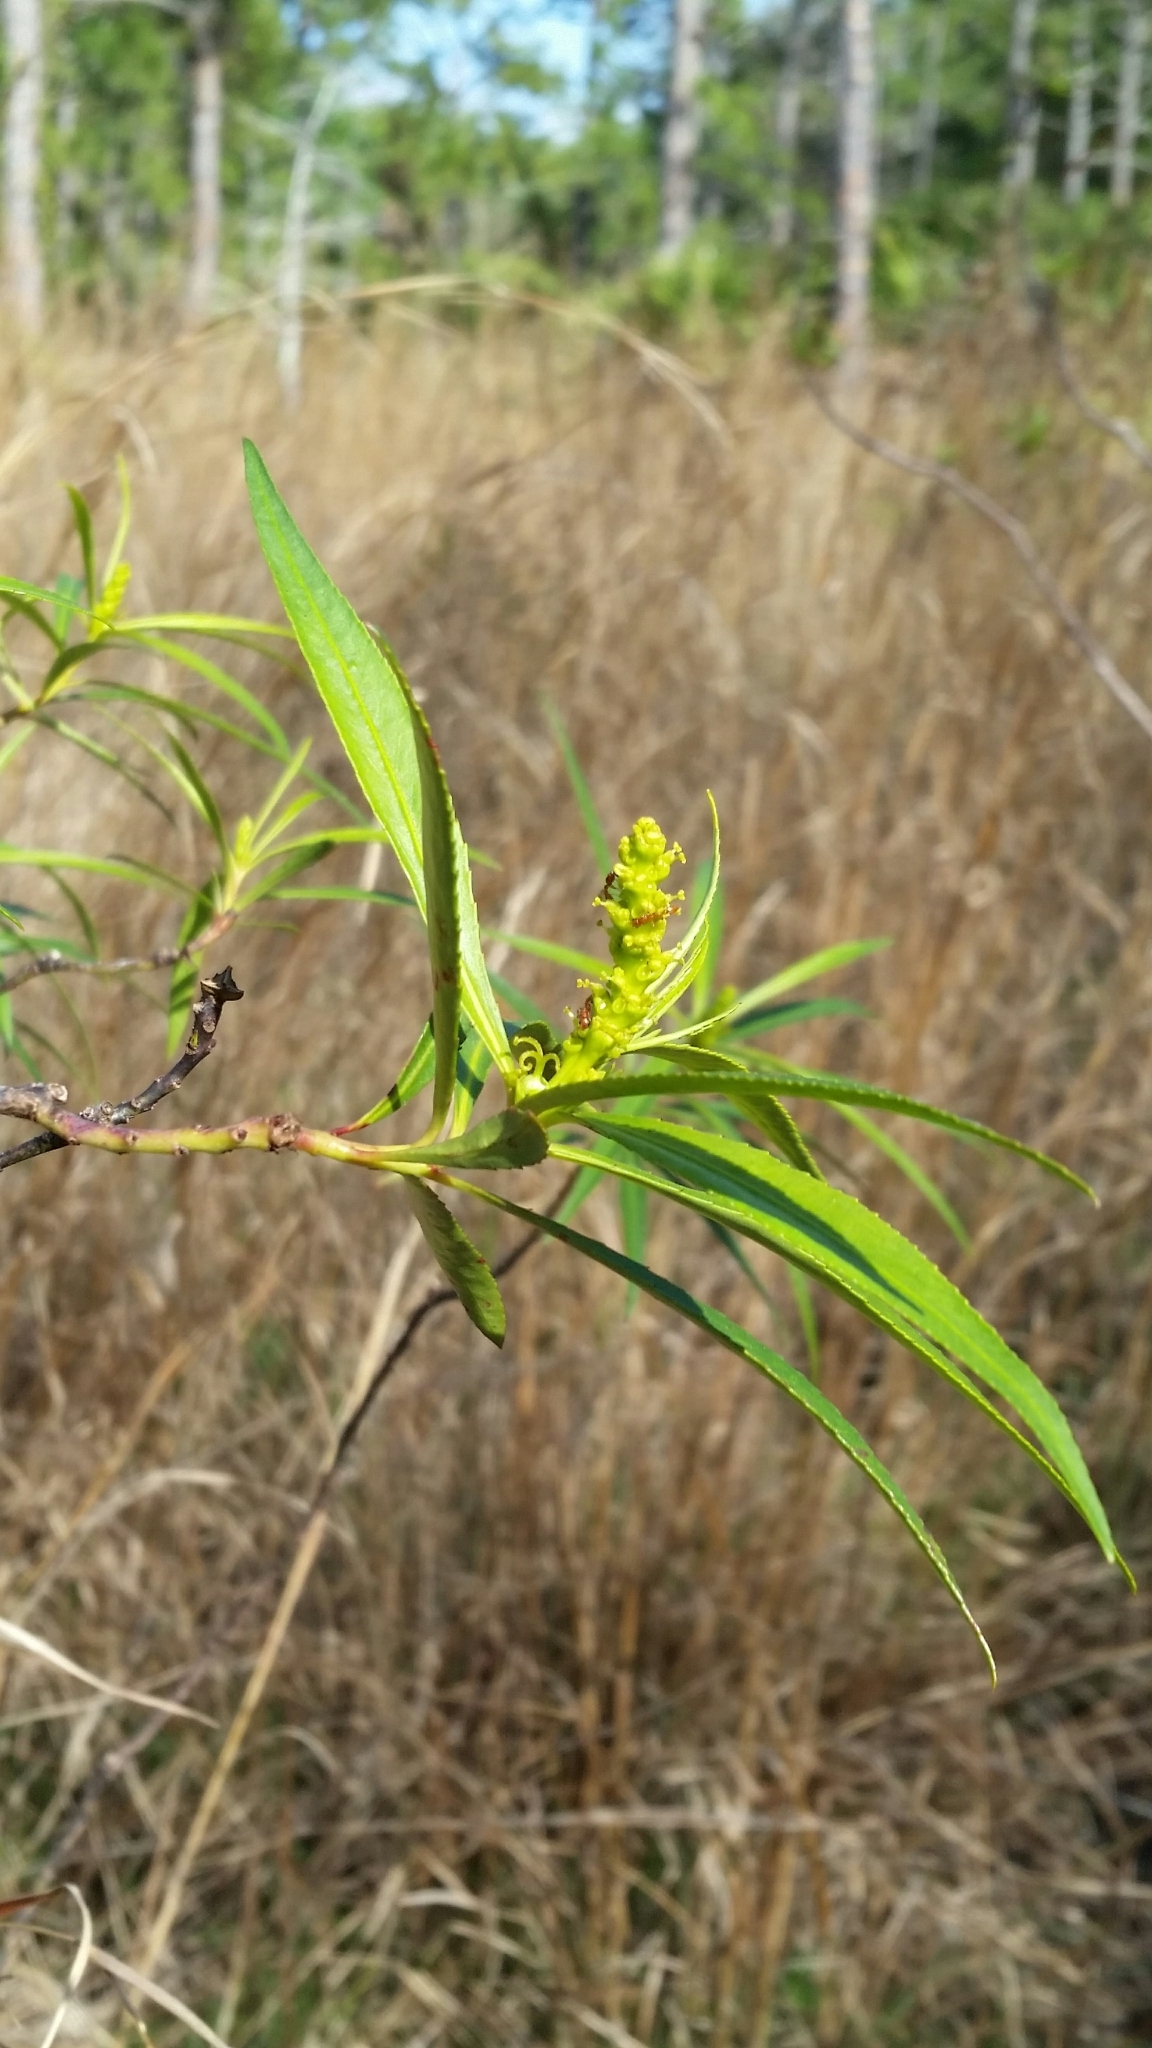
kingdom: Plantae
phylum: Tracheophyta
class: Magnoliopsida
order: Malpighiales
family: Euphorbiaceae
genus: Stillingia
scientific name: Stillingia aquatica
